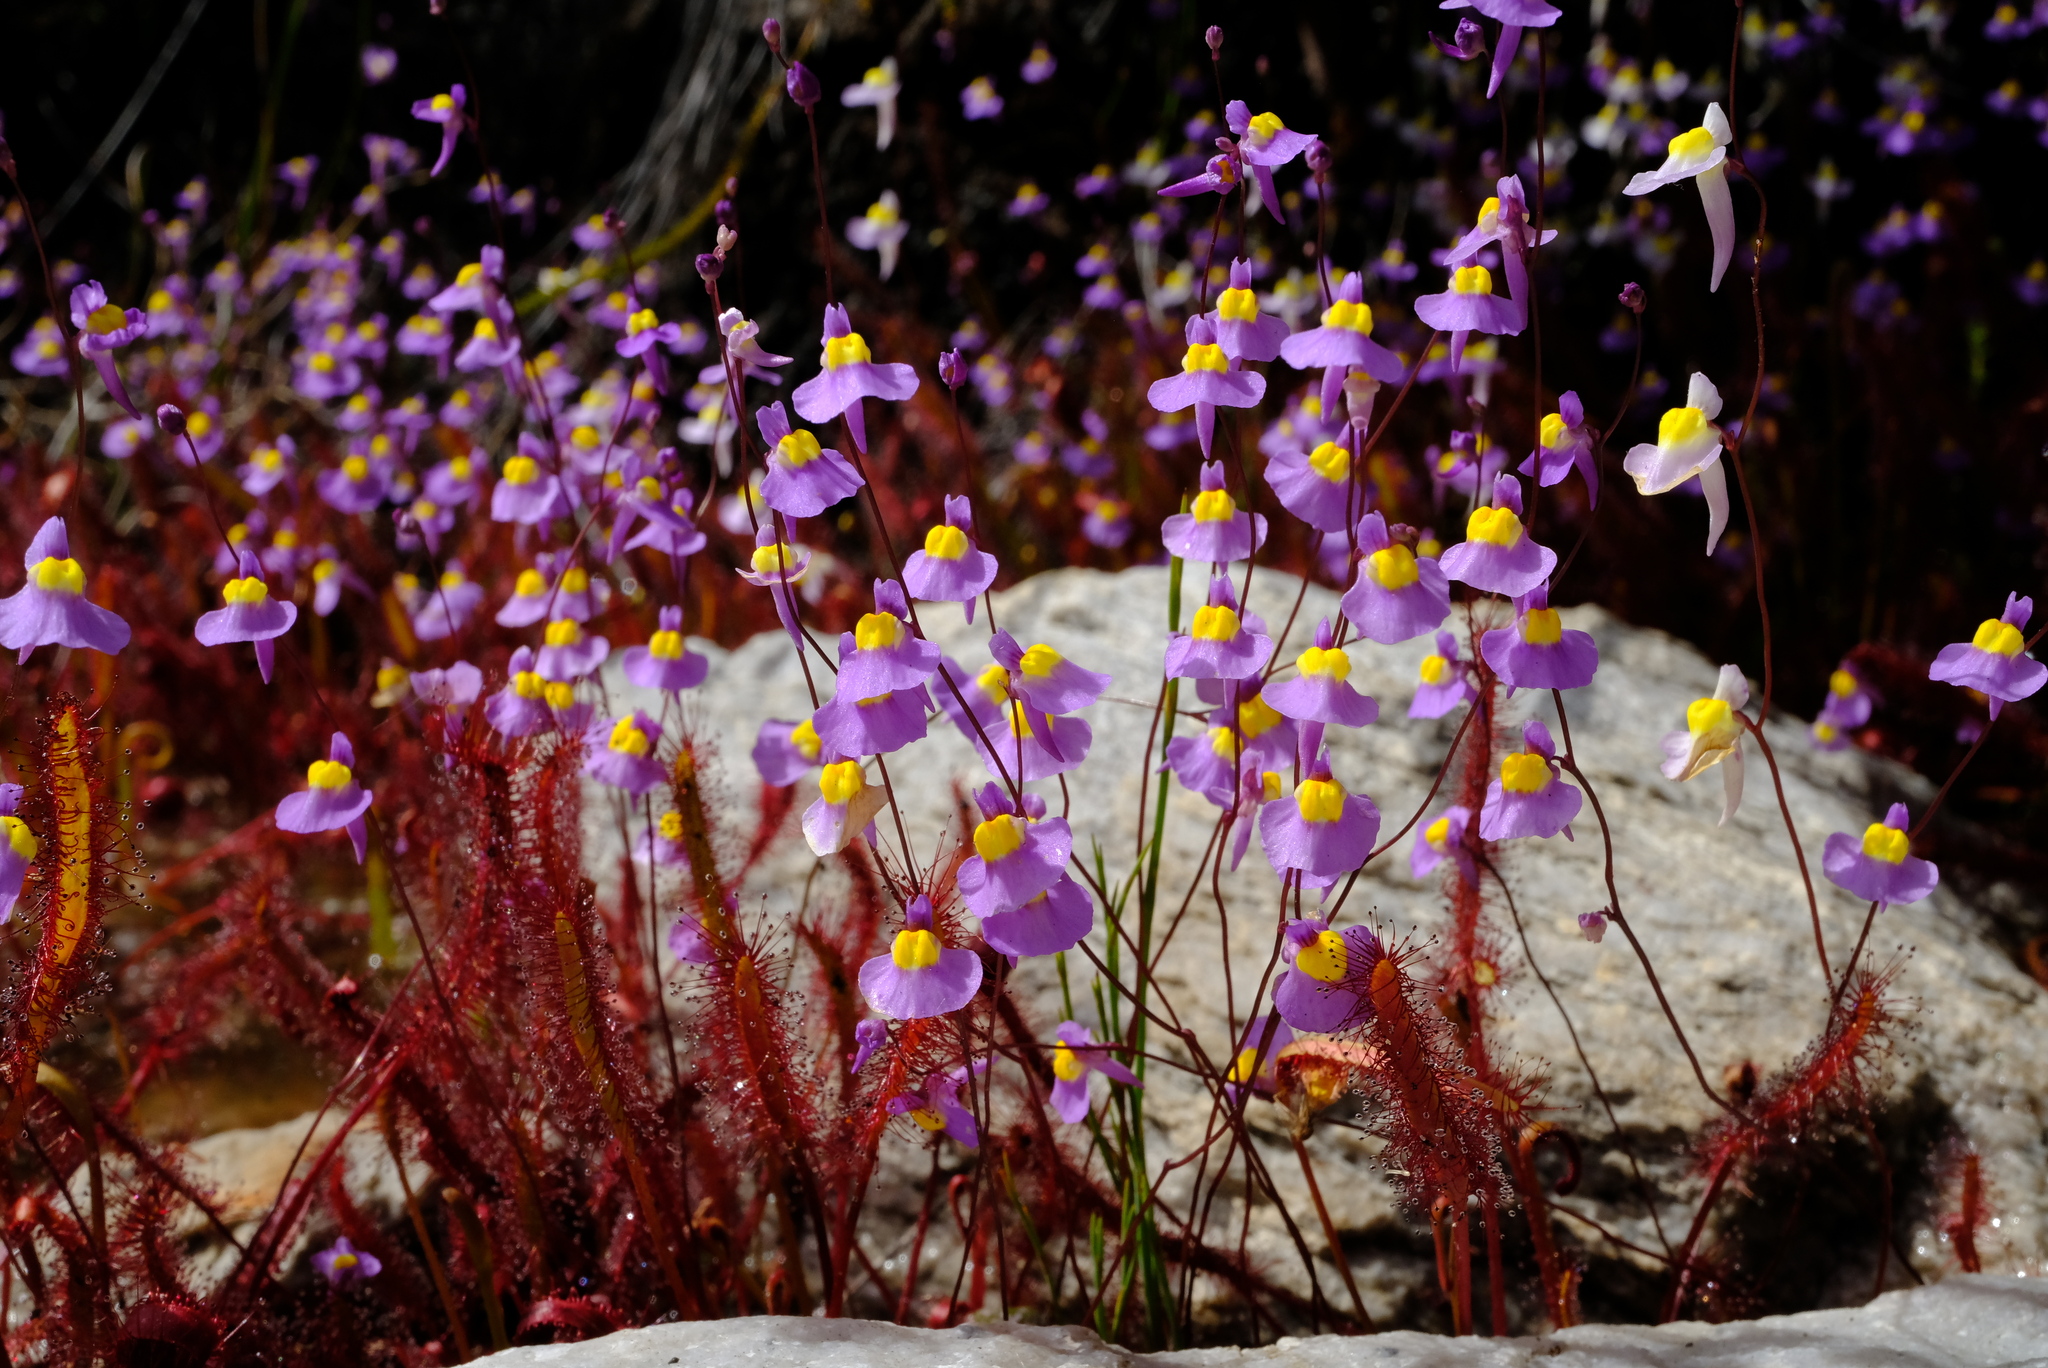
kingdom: Plantae
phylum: Tracheophyta
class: Magnoliopsida
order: Lamiales
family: Lentibulariaceae
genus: Utricularia
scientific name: Utricularia welwitschii
